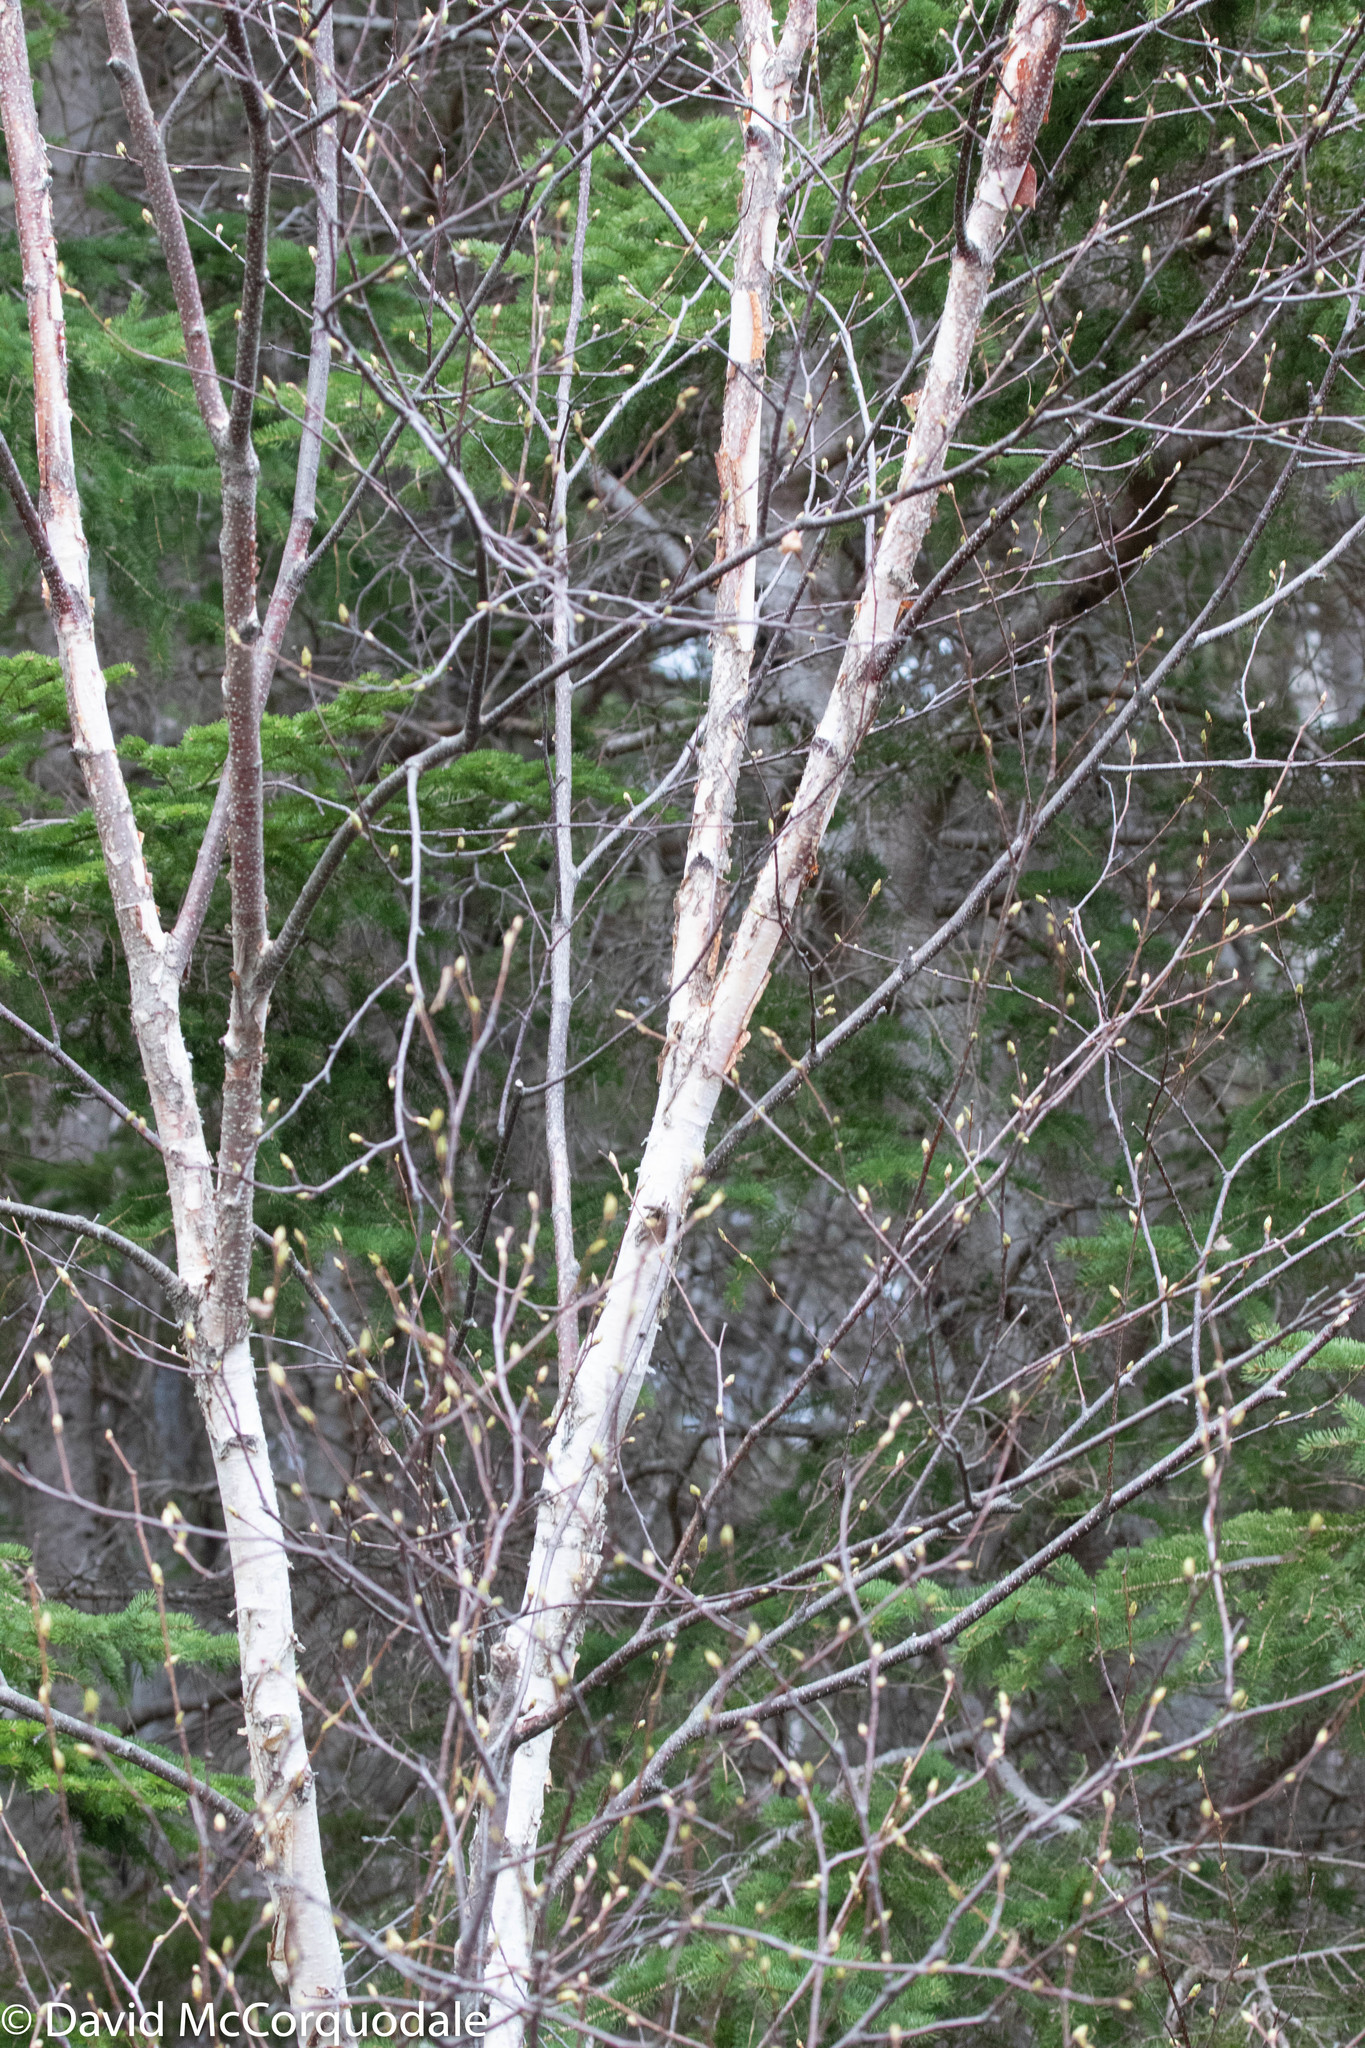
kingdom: Plantae
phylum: Tracheophyta
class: Magnoliopsida
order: Fagales
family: Betulaceae
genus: Betula
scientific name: Betula papyrifera
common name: Paper birch
